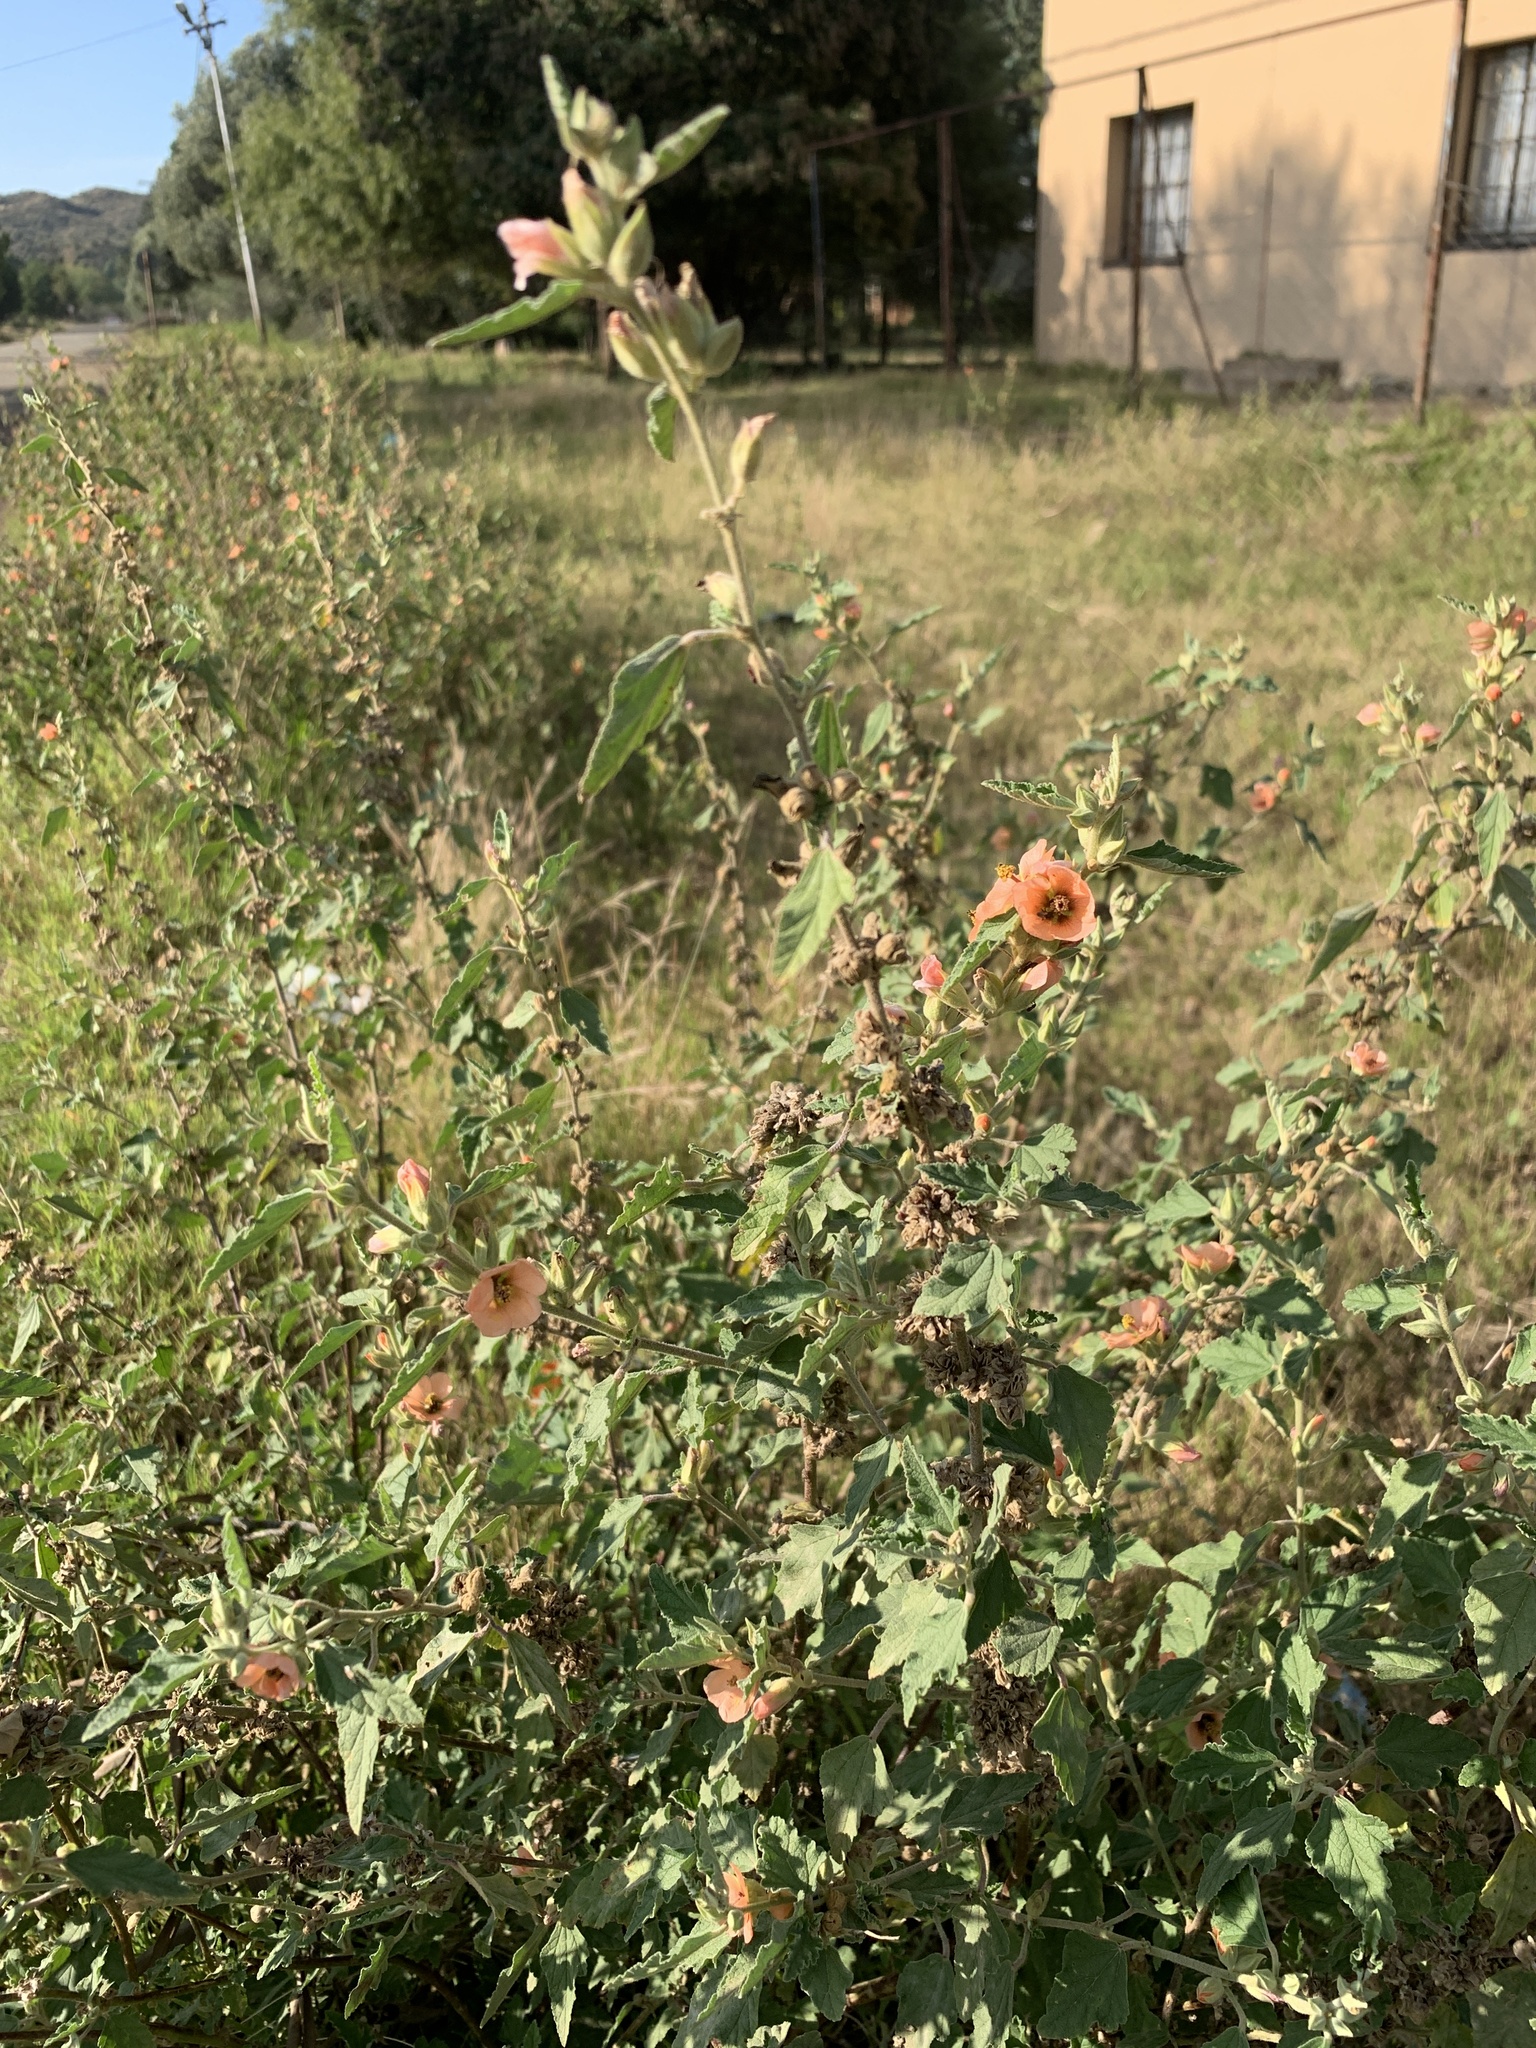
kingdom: Plantae
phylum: Tracheophyta
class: Magnoliopsida
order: Malvales
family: Malvaceae
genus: Sphaeralcea
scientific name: Sphaeralcea bonariensis
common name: Latin globemallow
